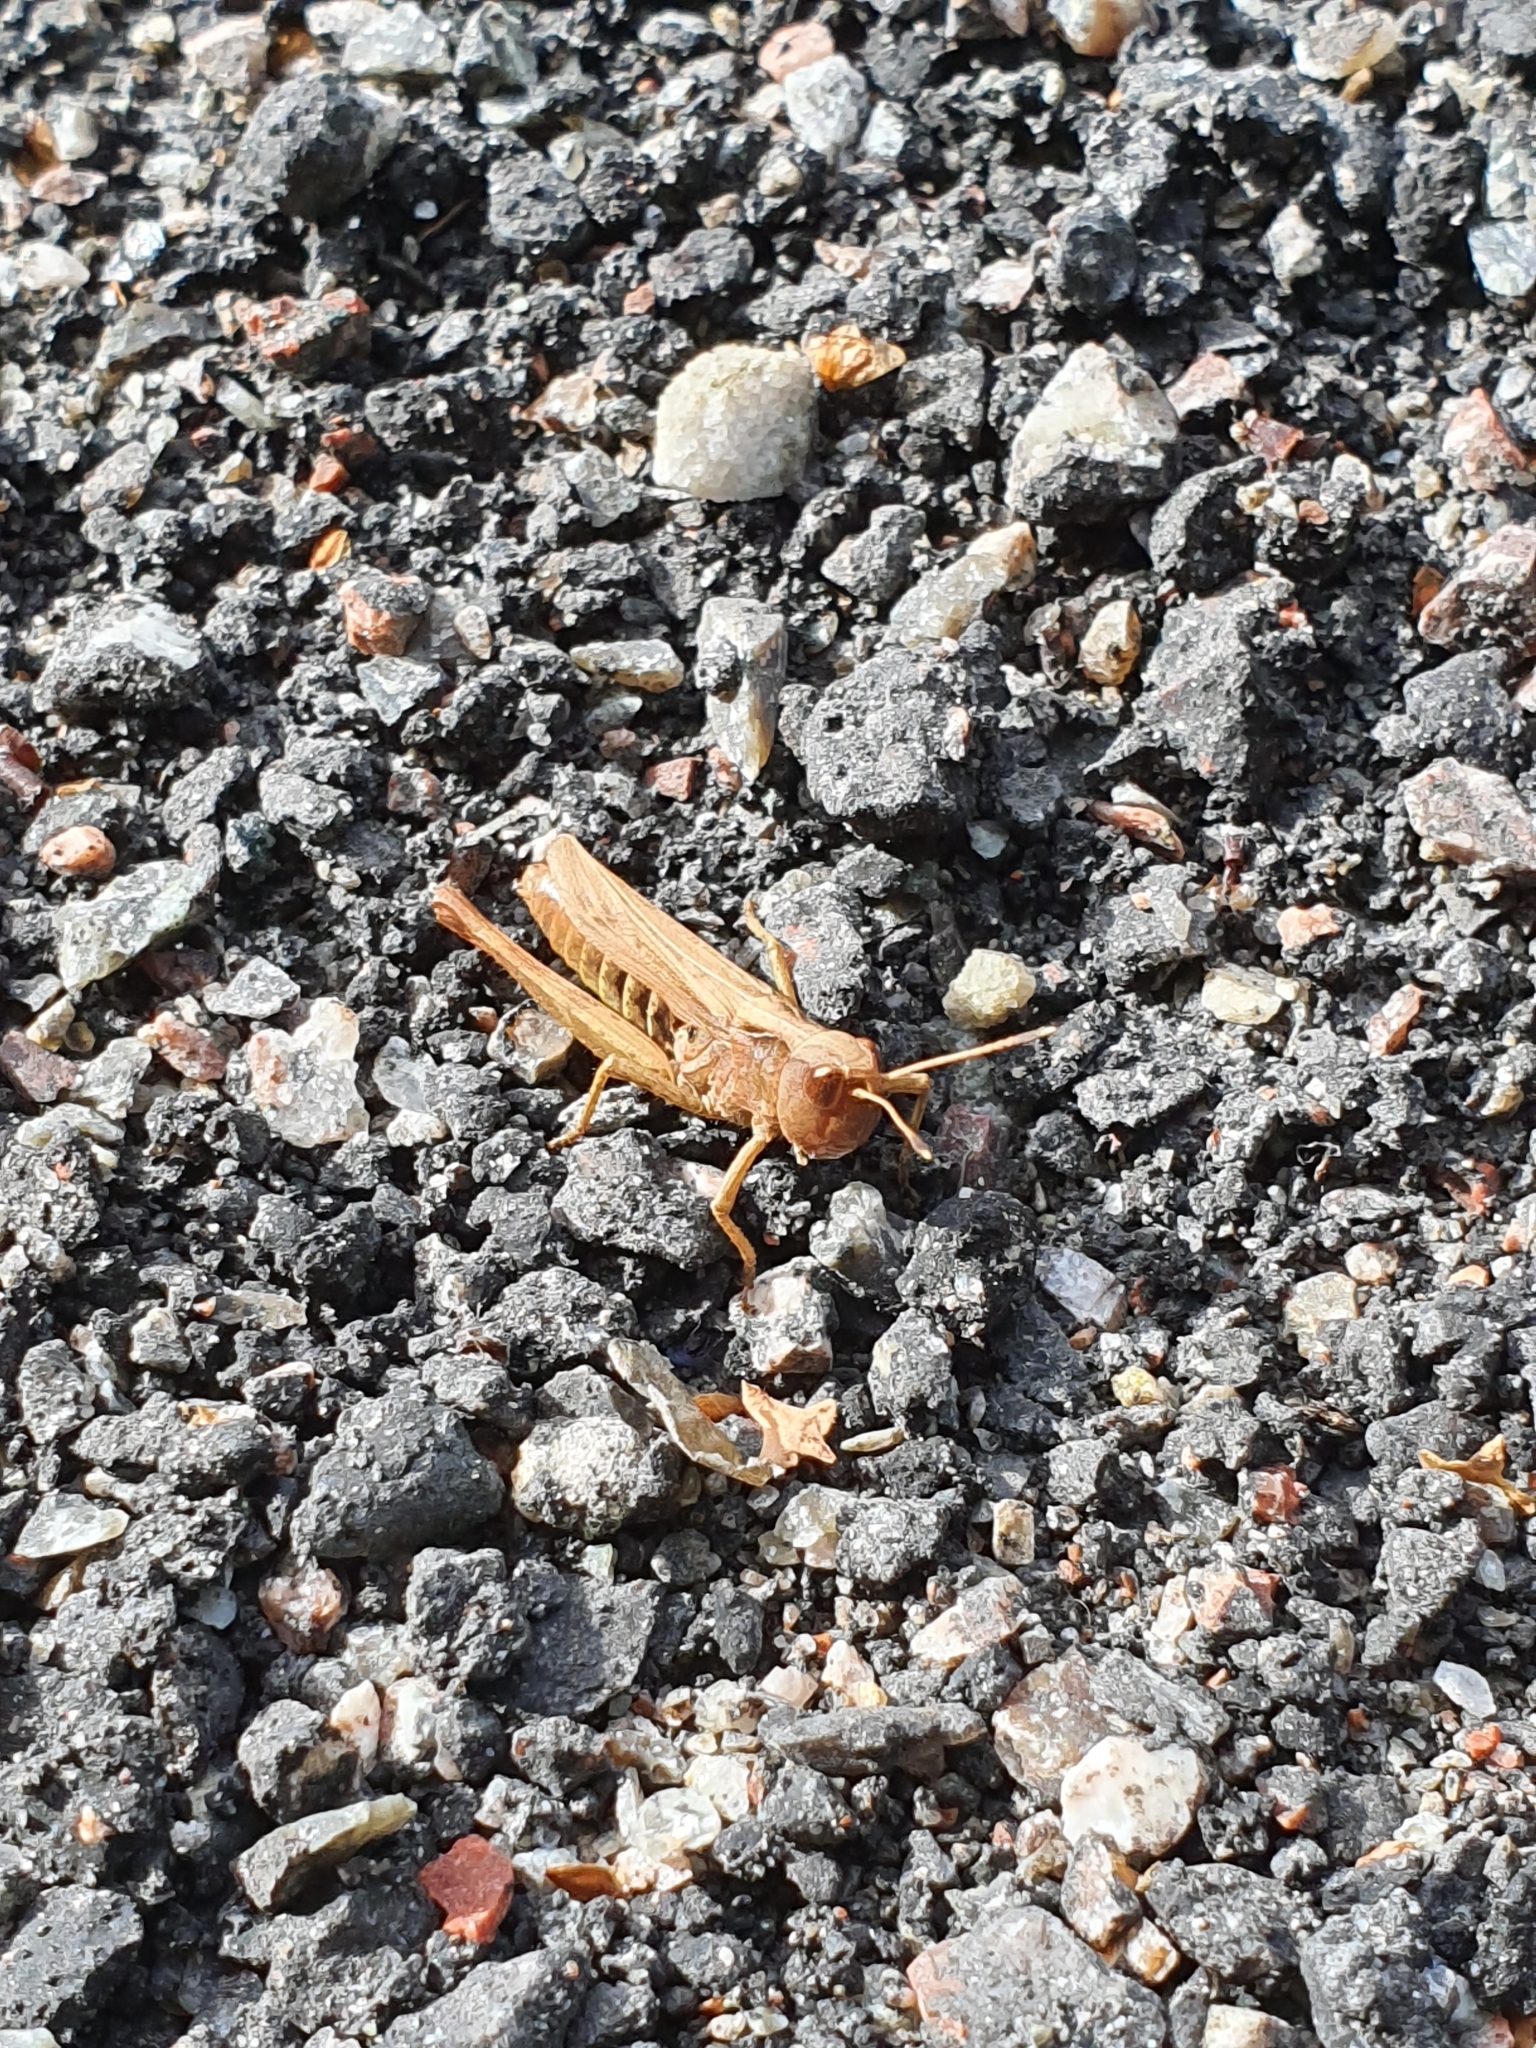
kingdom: Animalia
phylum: Arthropoda
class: Insecta
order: Orthoptera
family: Acrididae
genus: Gomphocerippus
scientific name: Gomphocerippus rufus
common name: Rufous grasshopper
